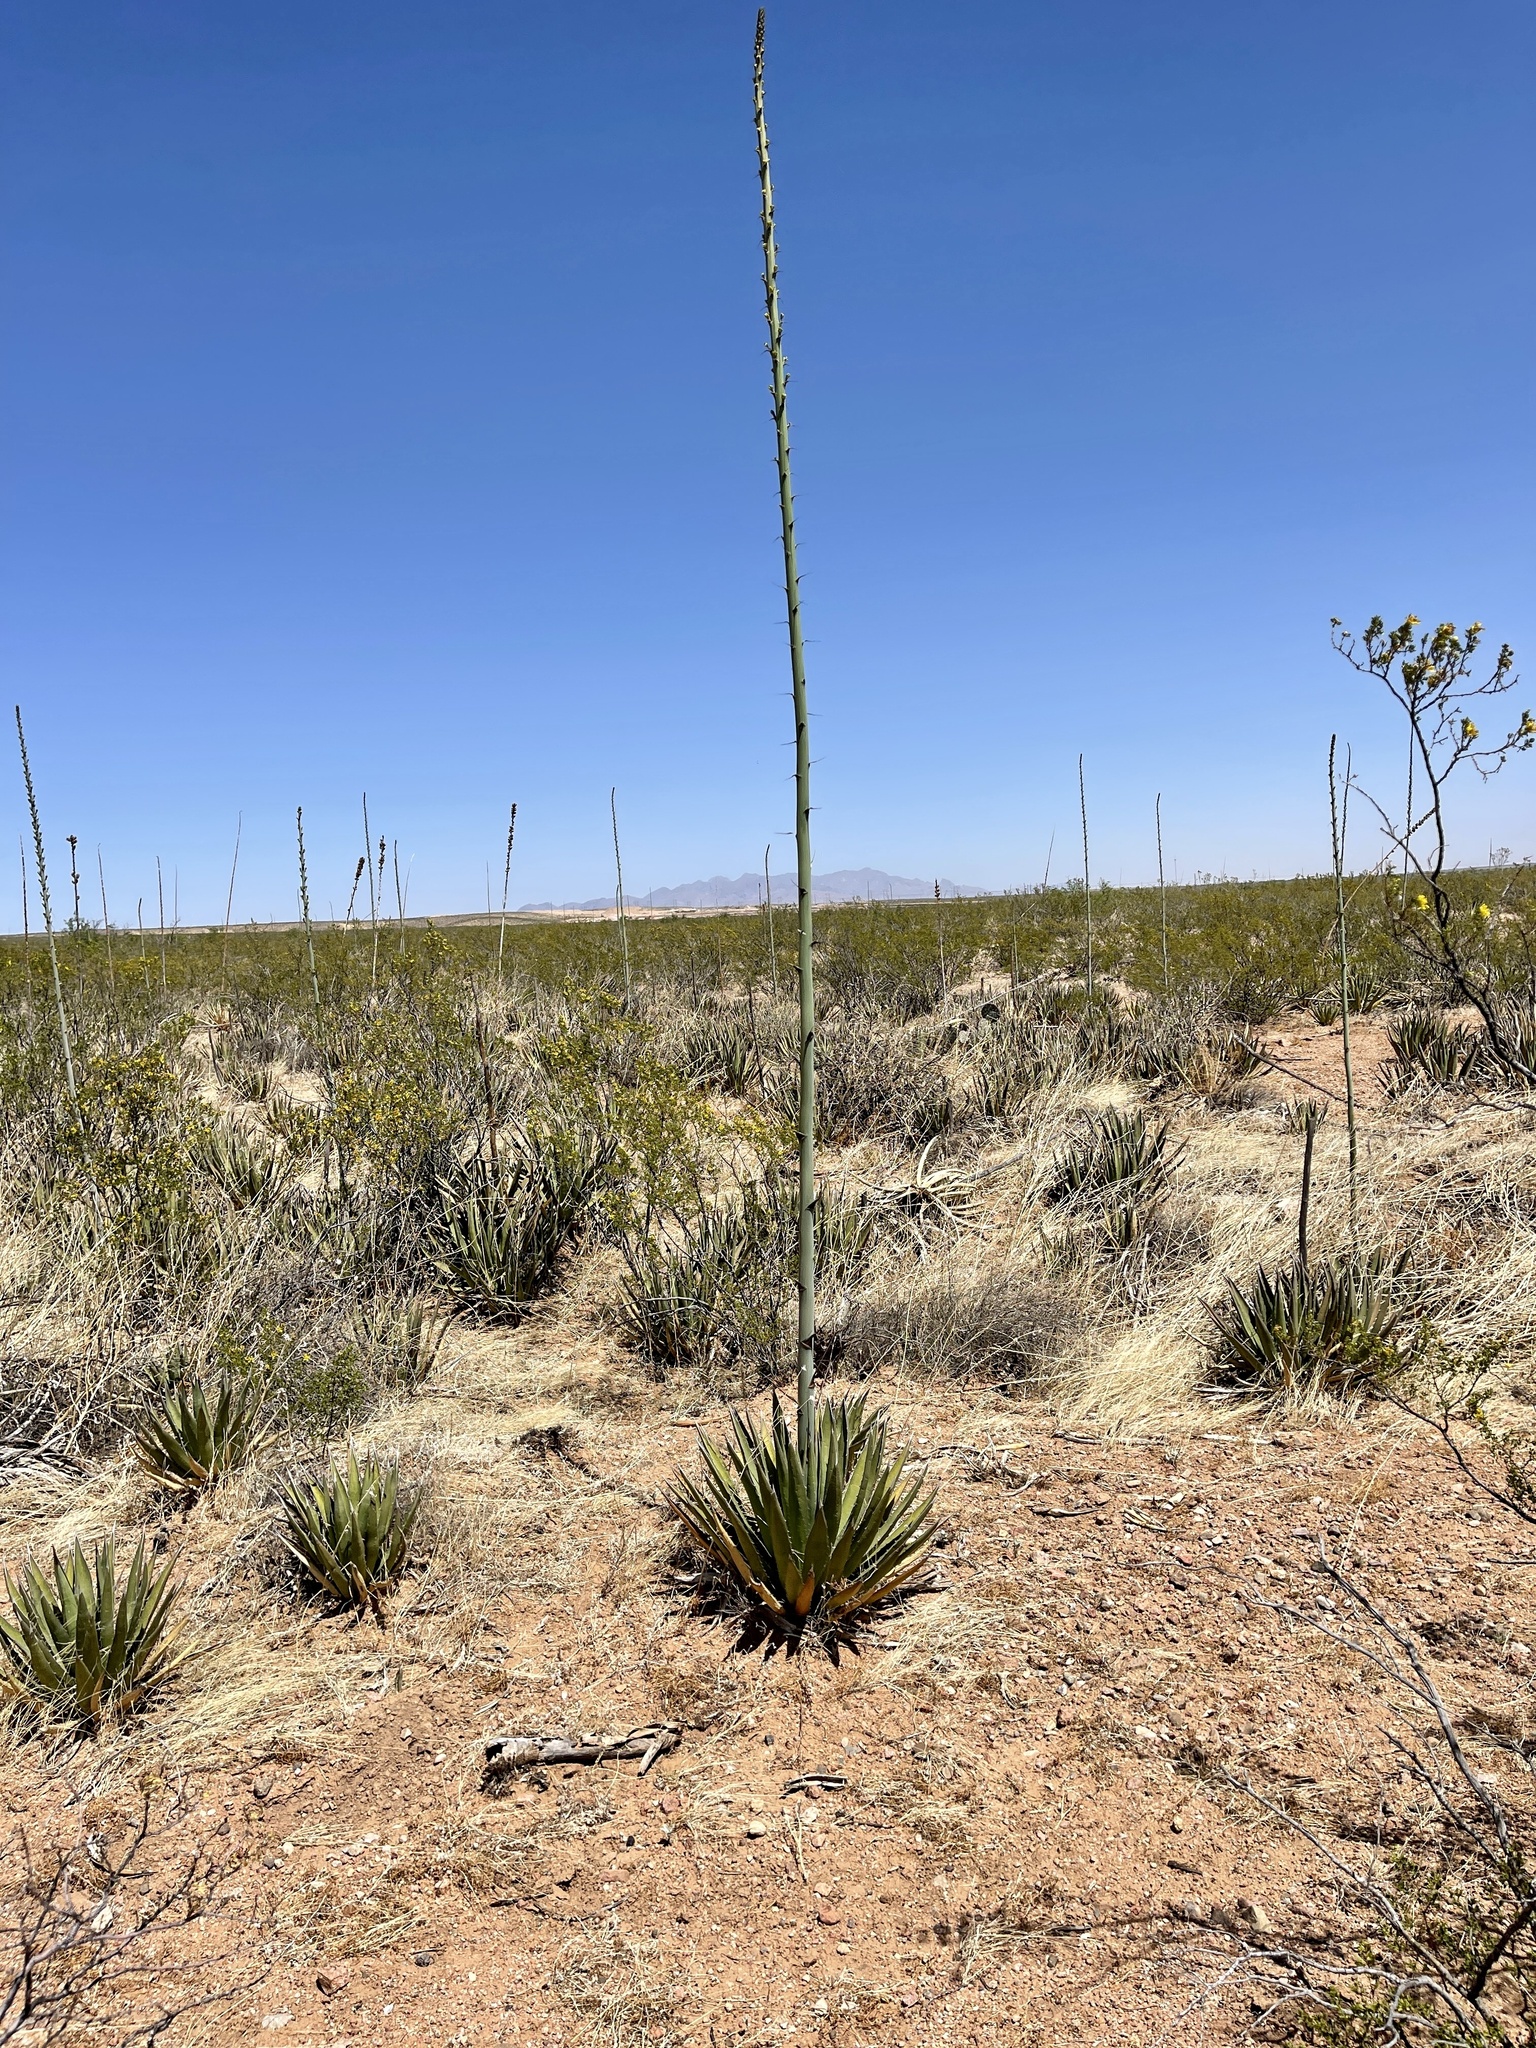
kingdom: Plantae
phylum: Tracheophyta
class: Liliopsida
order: Asparagales
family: Asparagaceae
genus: Agave
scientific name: Agave lechuguilla
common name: Lecheguilla agave
